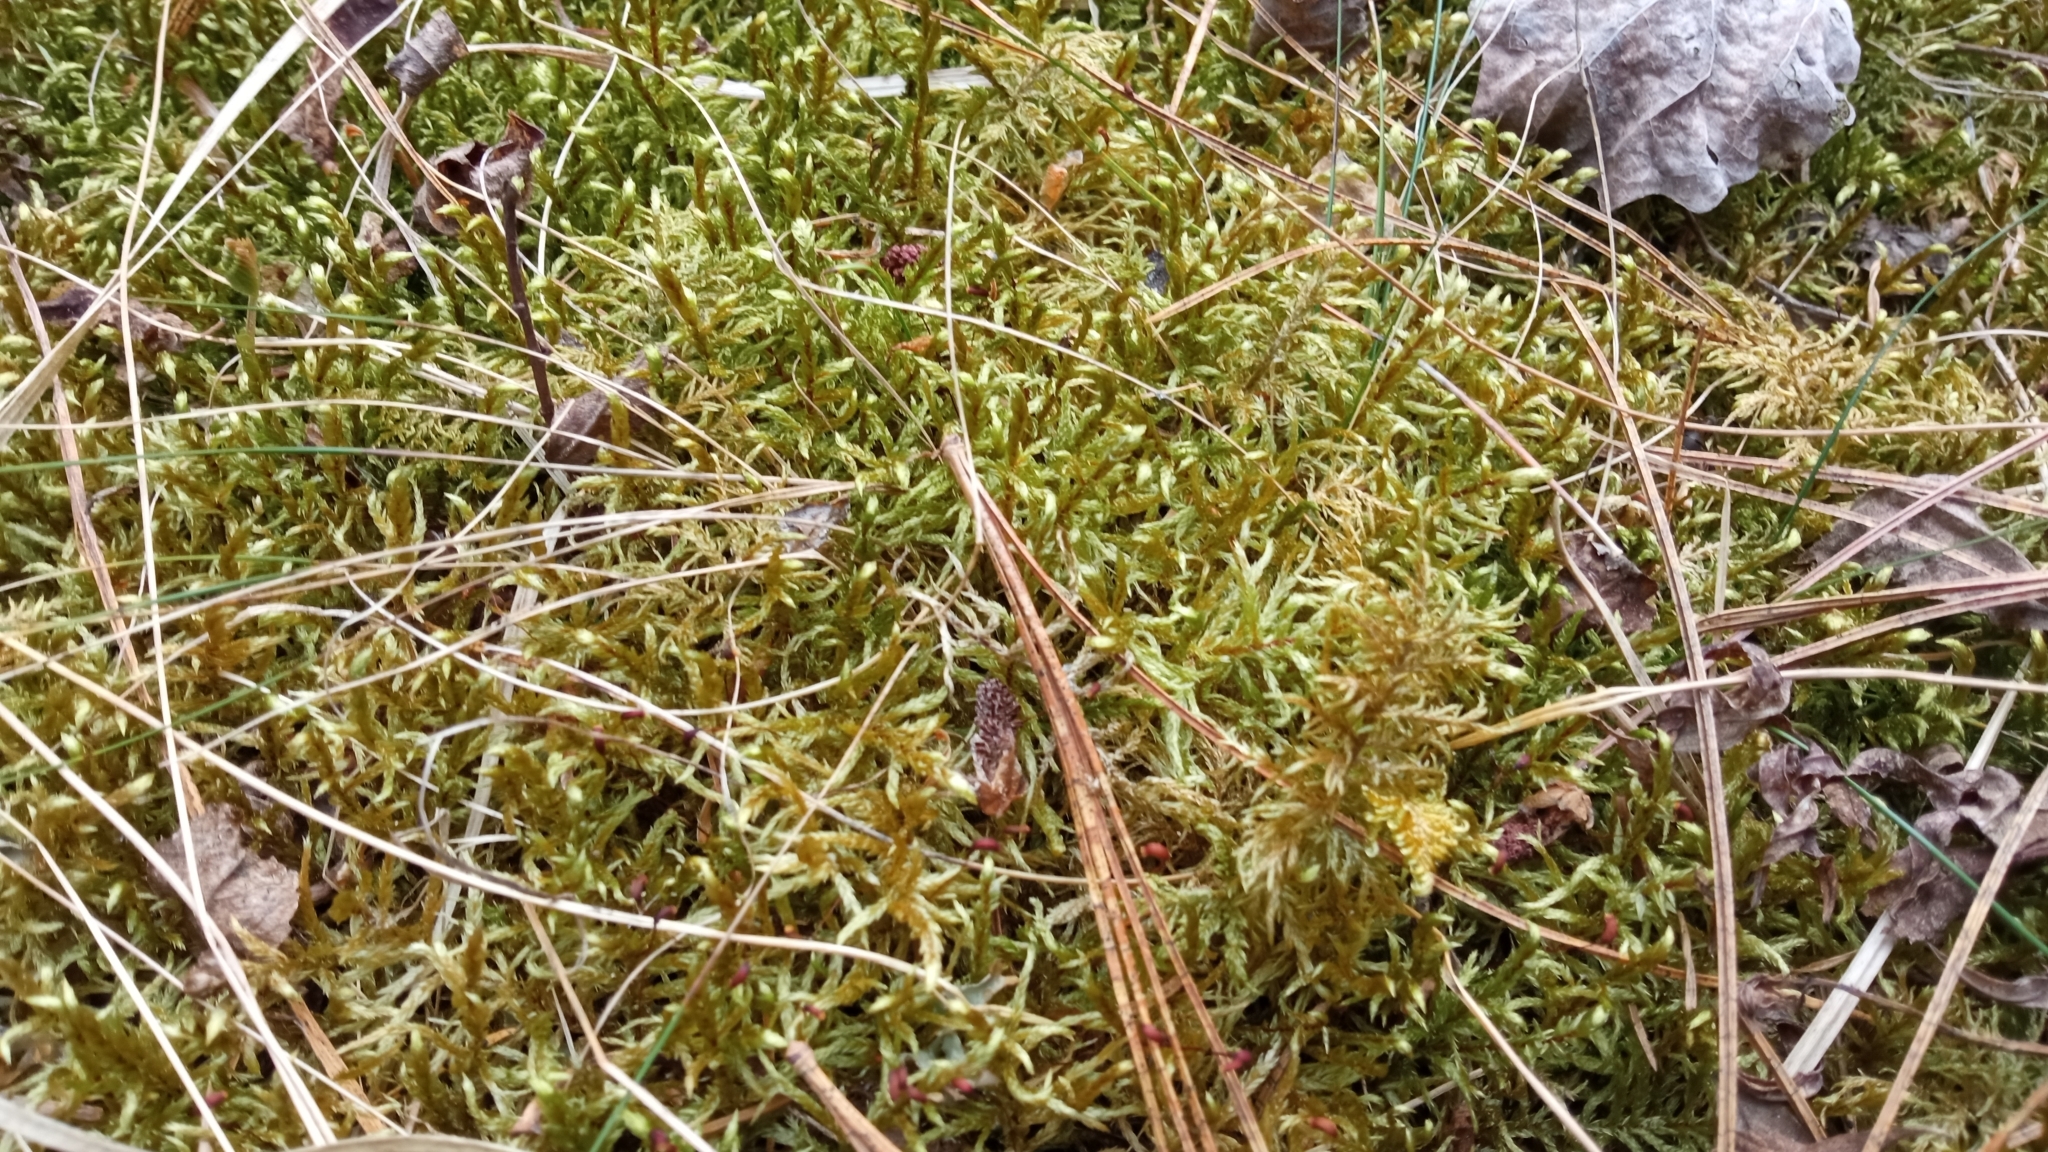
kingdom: Plantae
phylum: Bryophyta
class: Bryopsida
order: Hypnales
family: Hylocomiaceae
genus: Hylocomium
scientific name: Hylocomium splendens
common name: Stairstep moss
